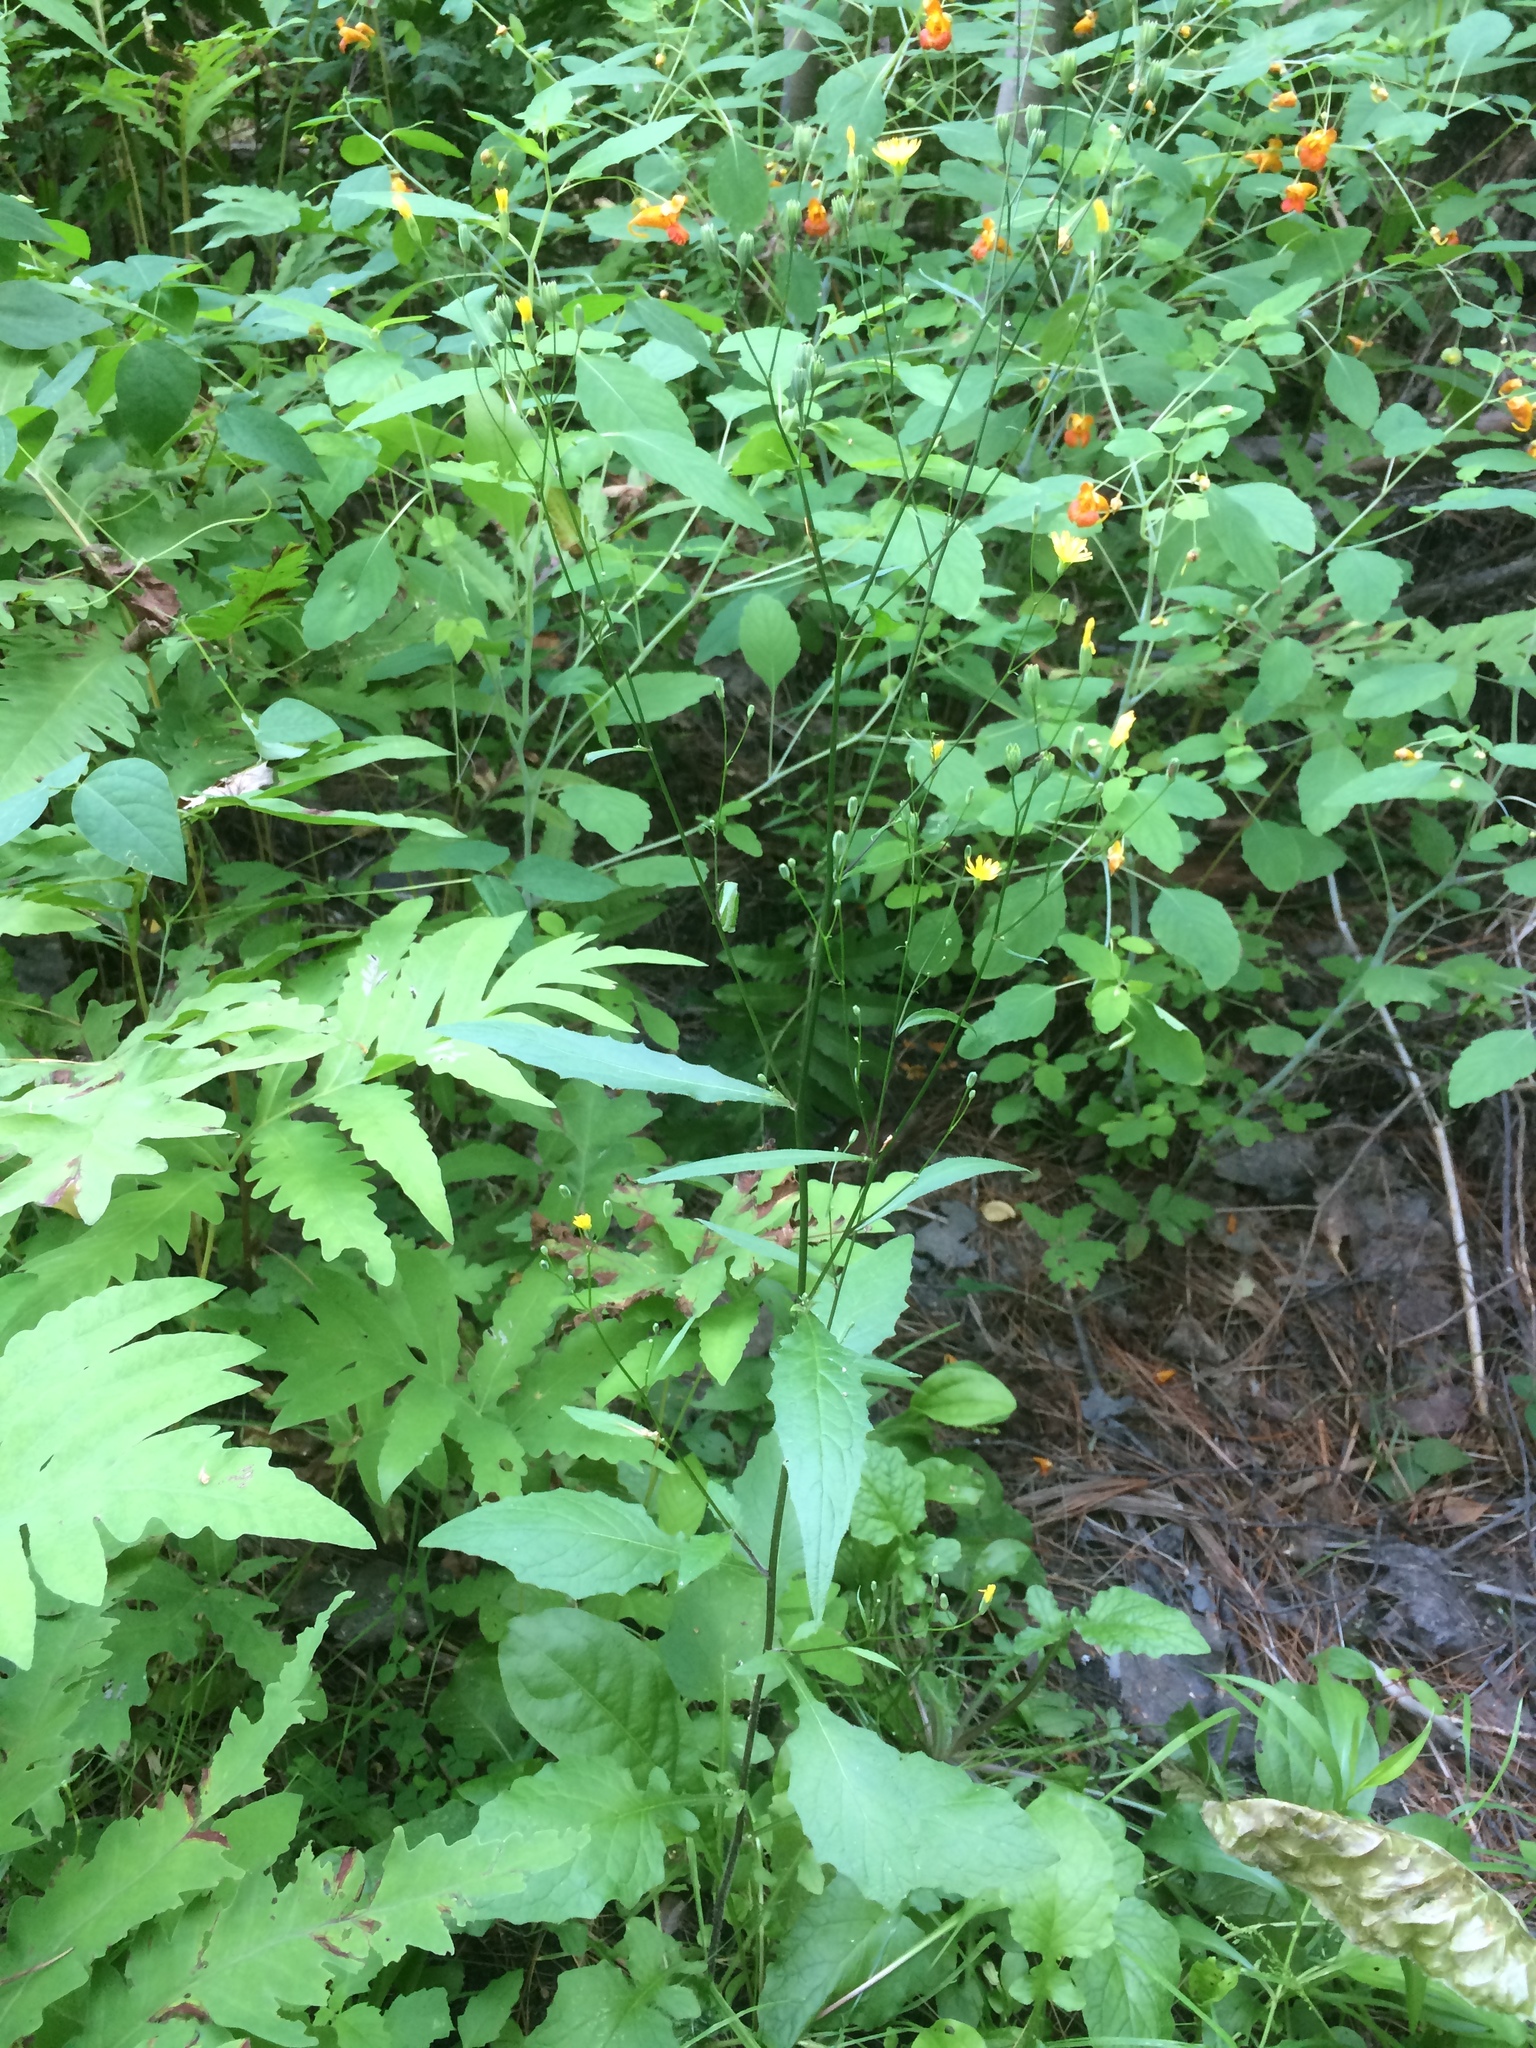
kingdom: Plantae
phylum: Tracheophyta
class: Magnoliopsida
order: Asterales
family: Asteraceae
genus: Lapsana
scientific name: Lapsana communis
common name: Nipplewort
